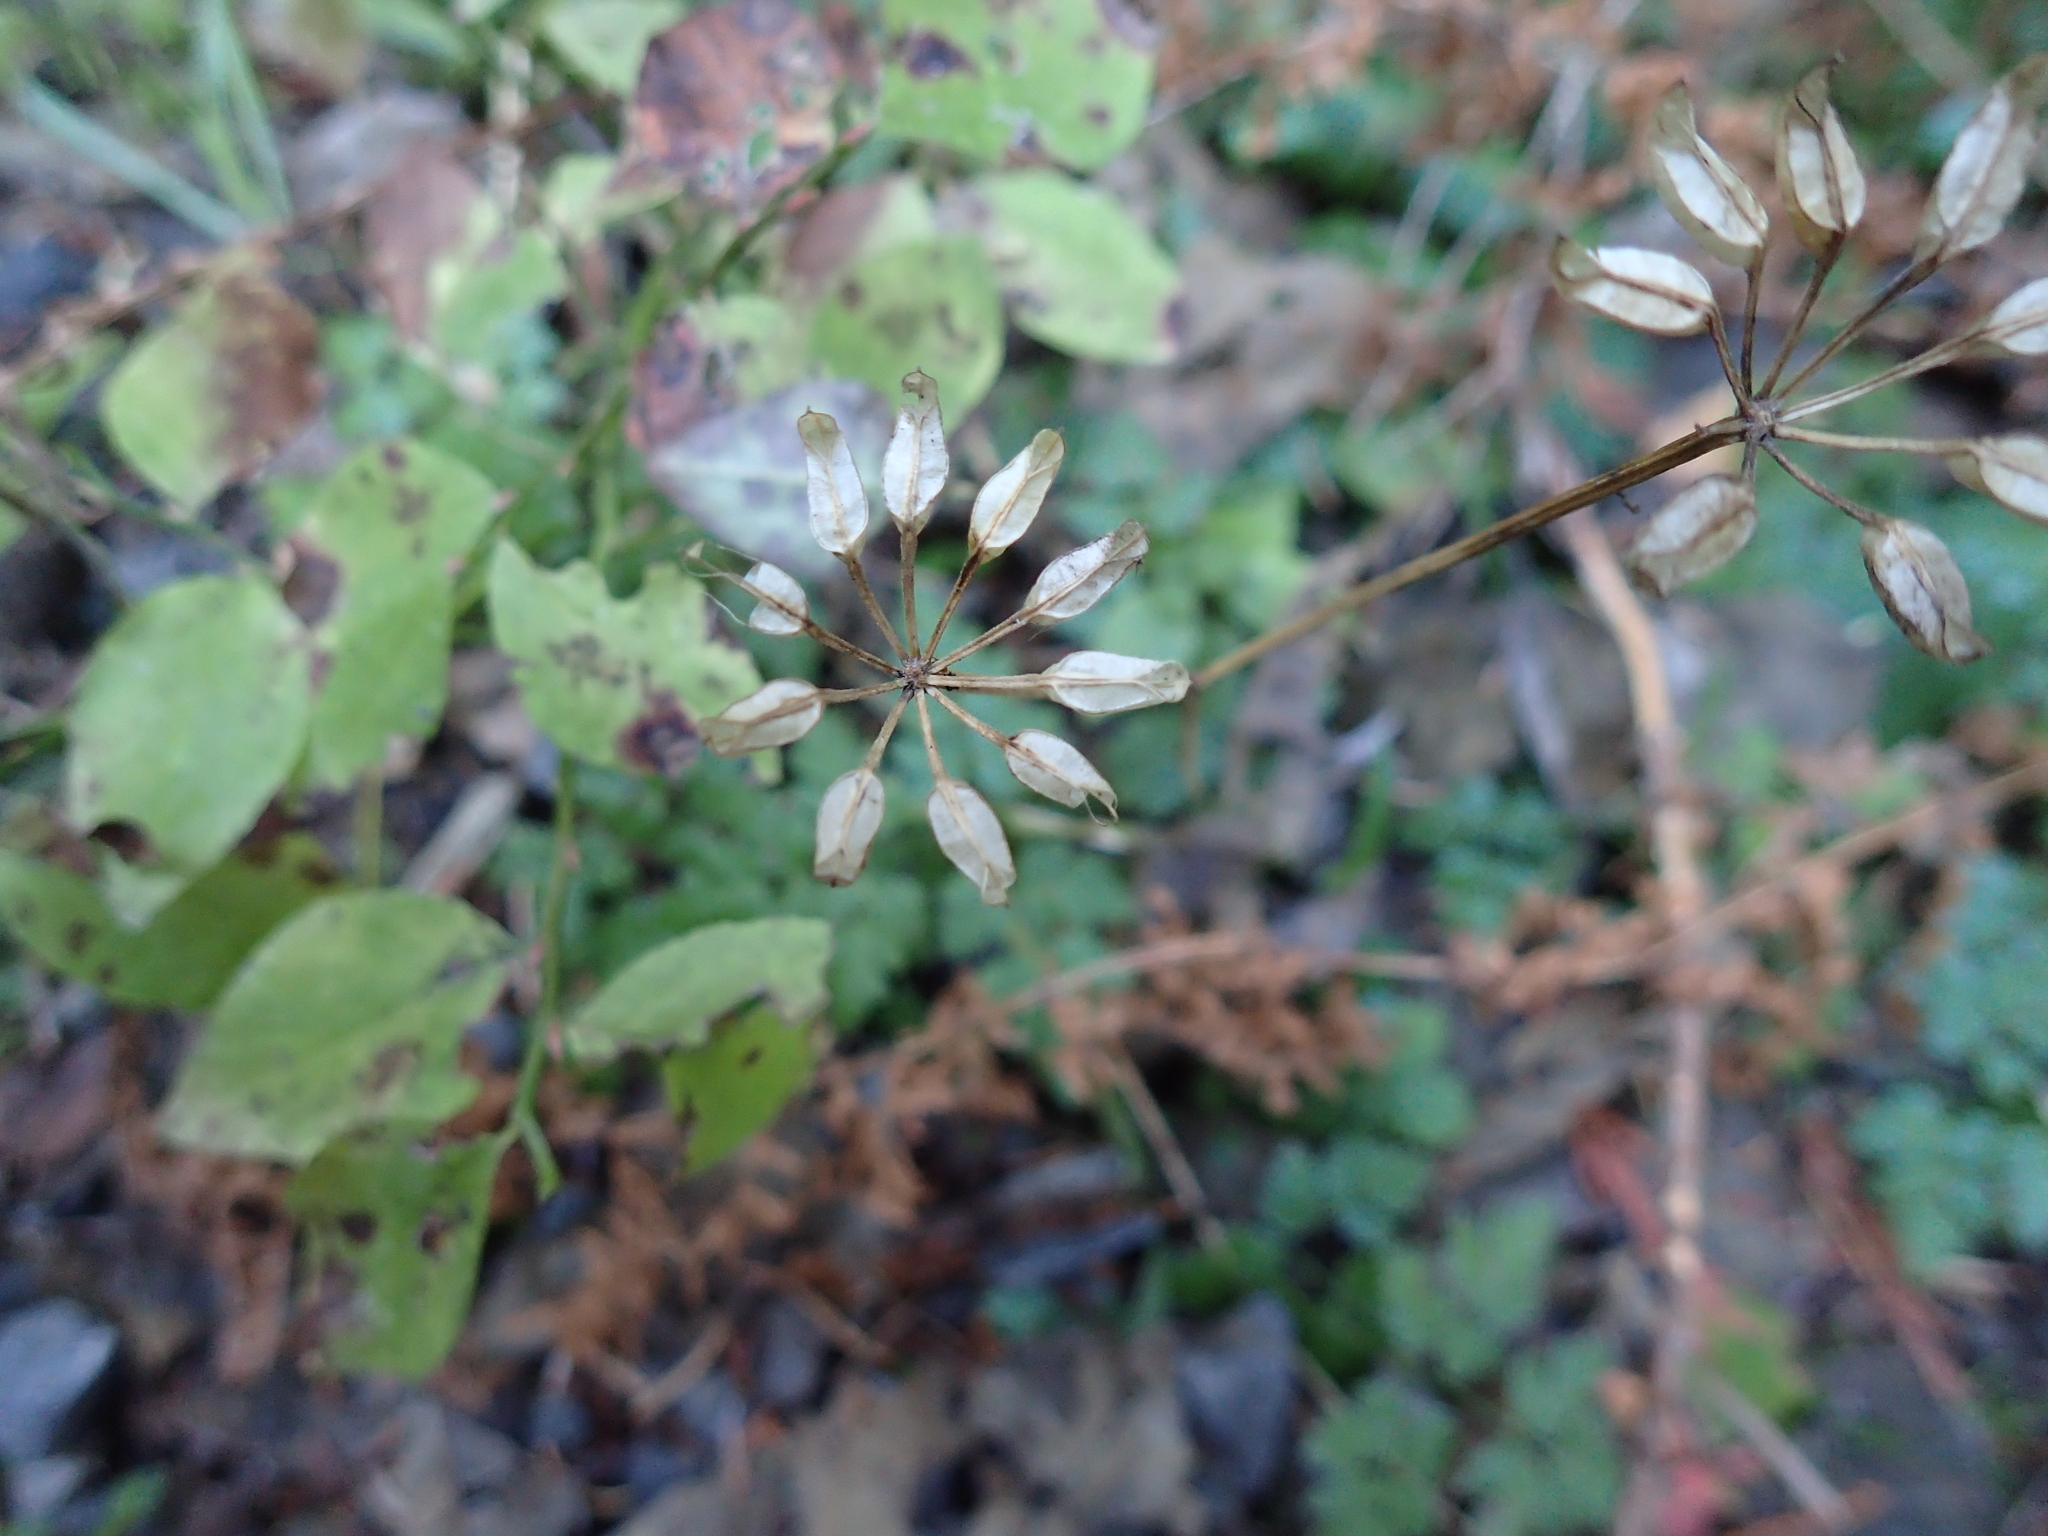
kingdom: Plantae
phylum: Tracheophyta
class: Magnoliopsida
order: Ranunculales
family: Ranunculaceae
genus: Coptis
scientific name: Coptis aspleniifolia
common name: Fern-leaved goldthread
